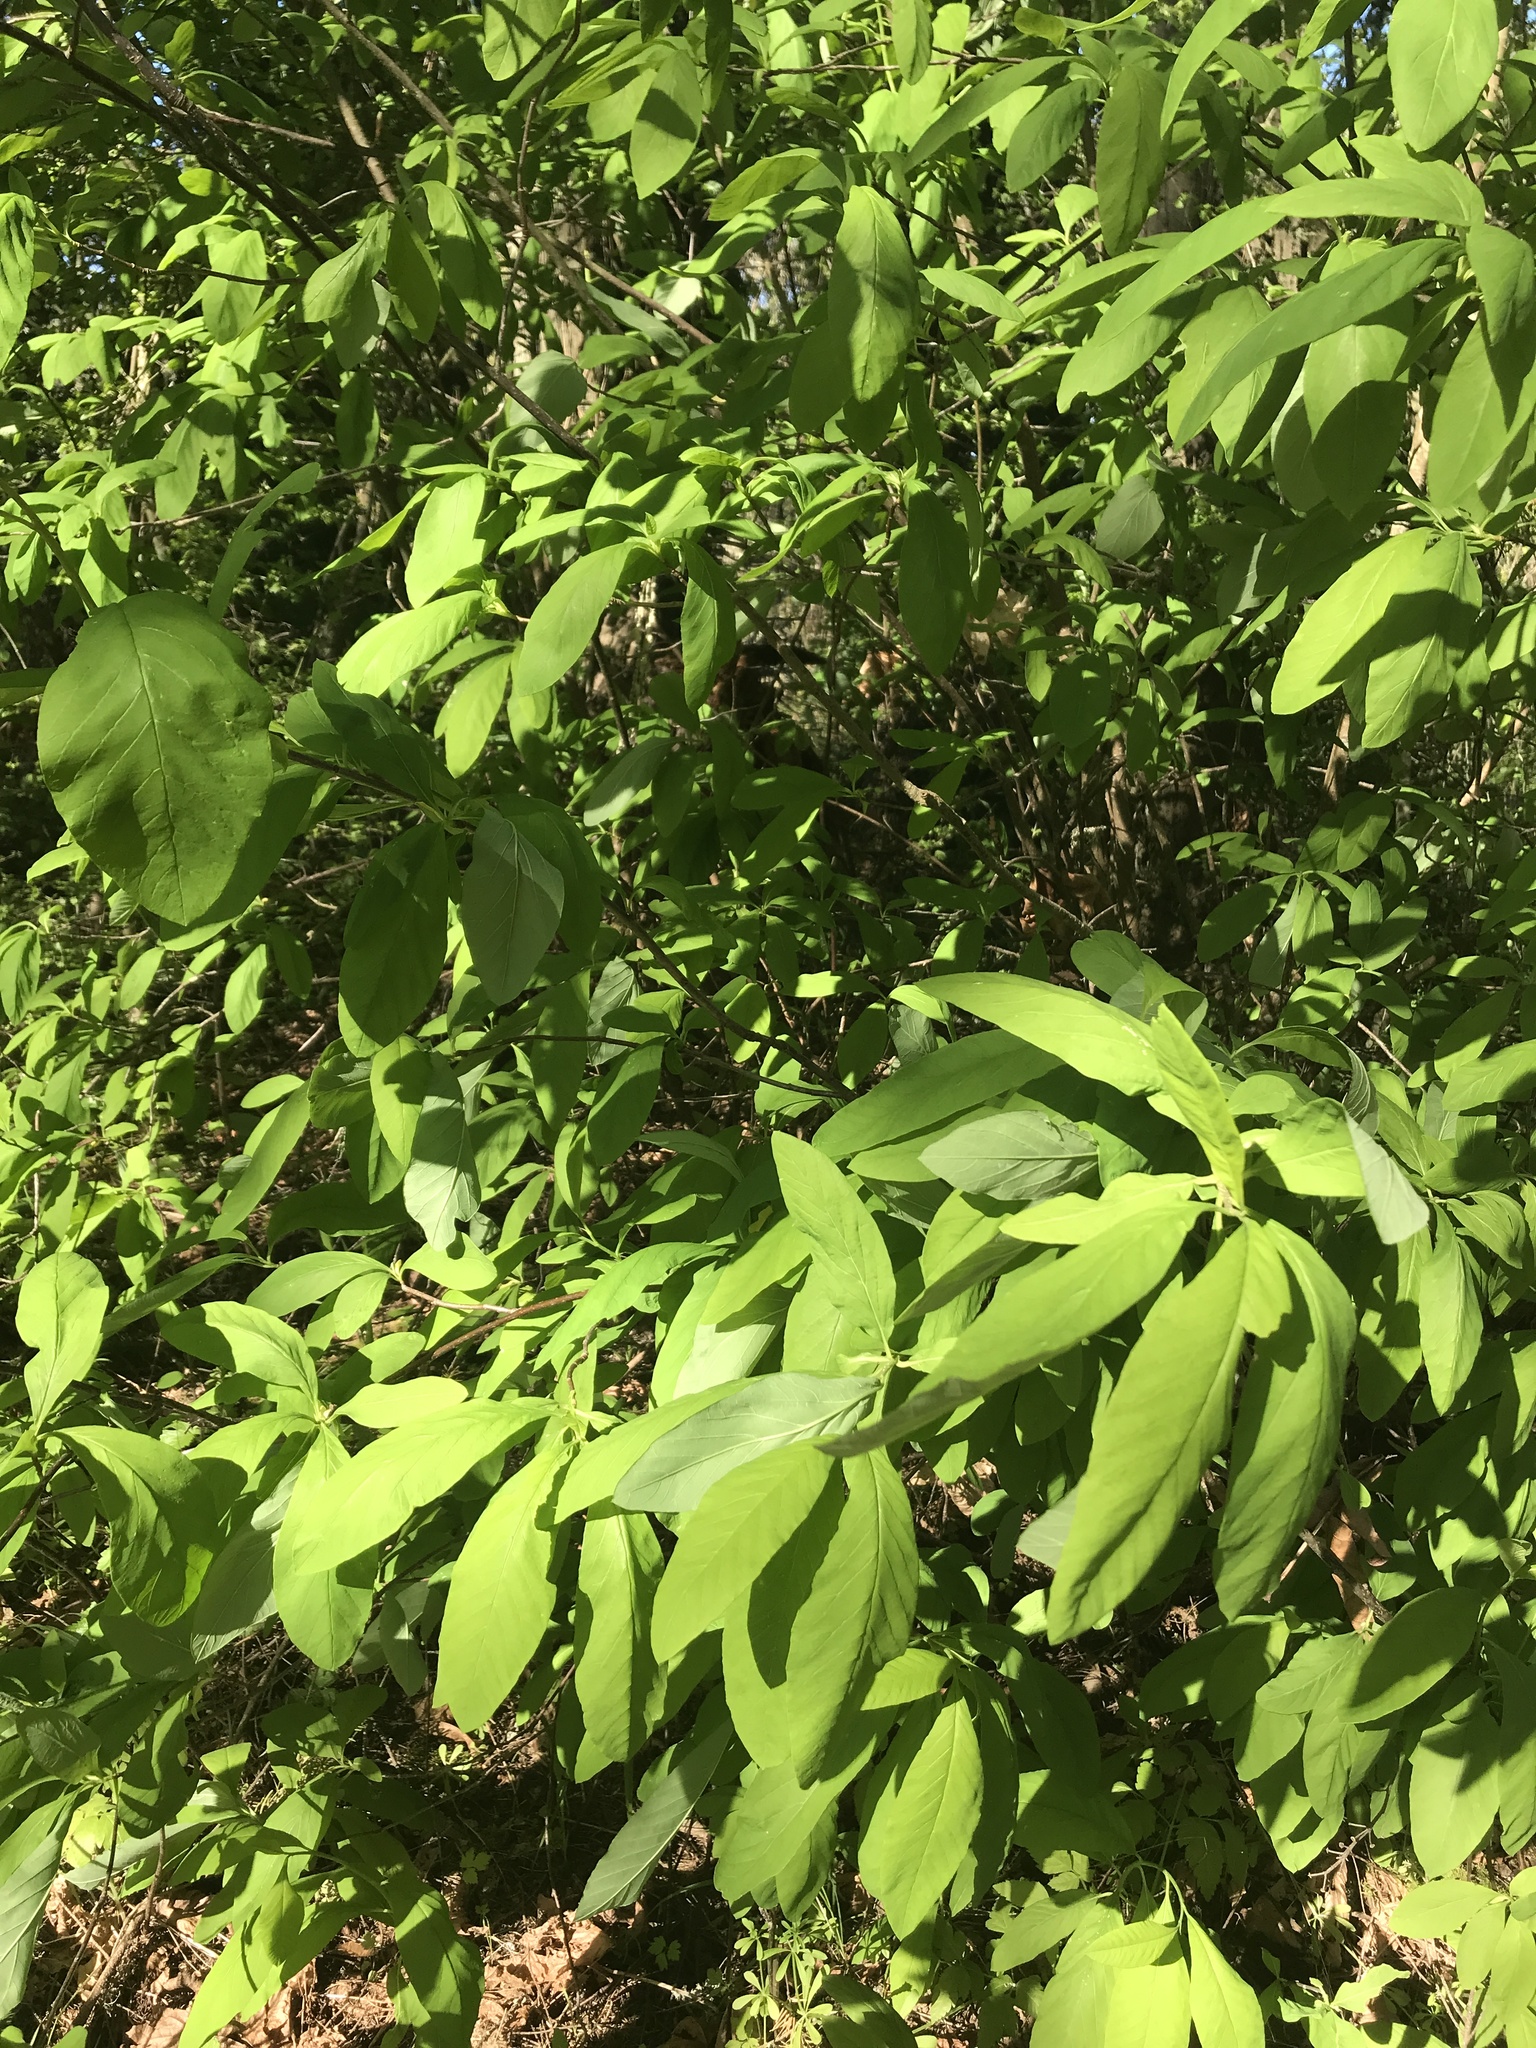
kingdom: Plantae
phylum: Tracheophyta
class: Magnoliopsida
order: Rosales
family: Rosaceae
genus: Oemleria
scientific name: Oemleria cerasiformis
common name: Osoberry
